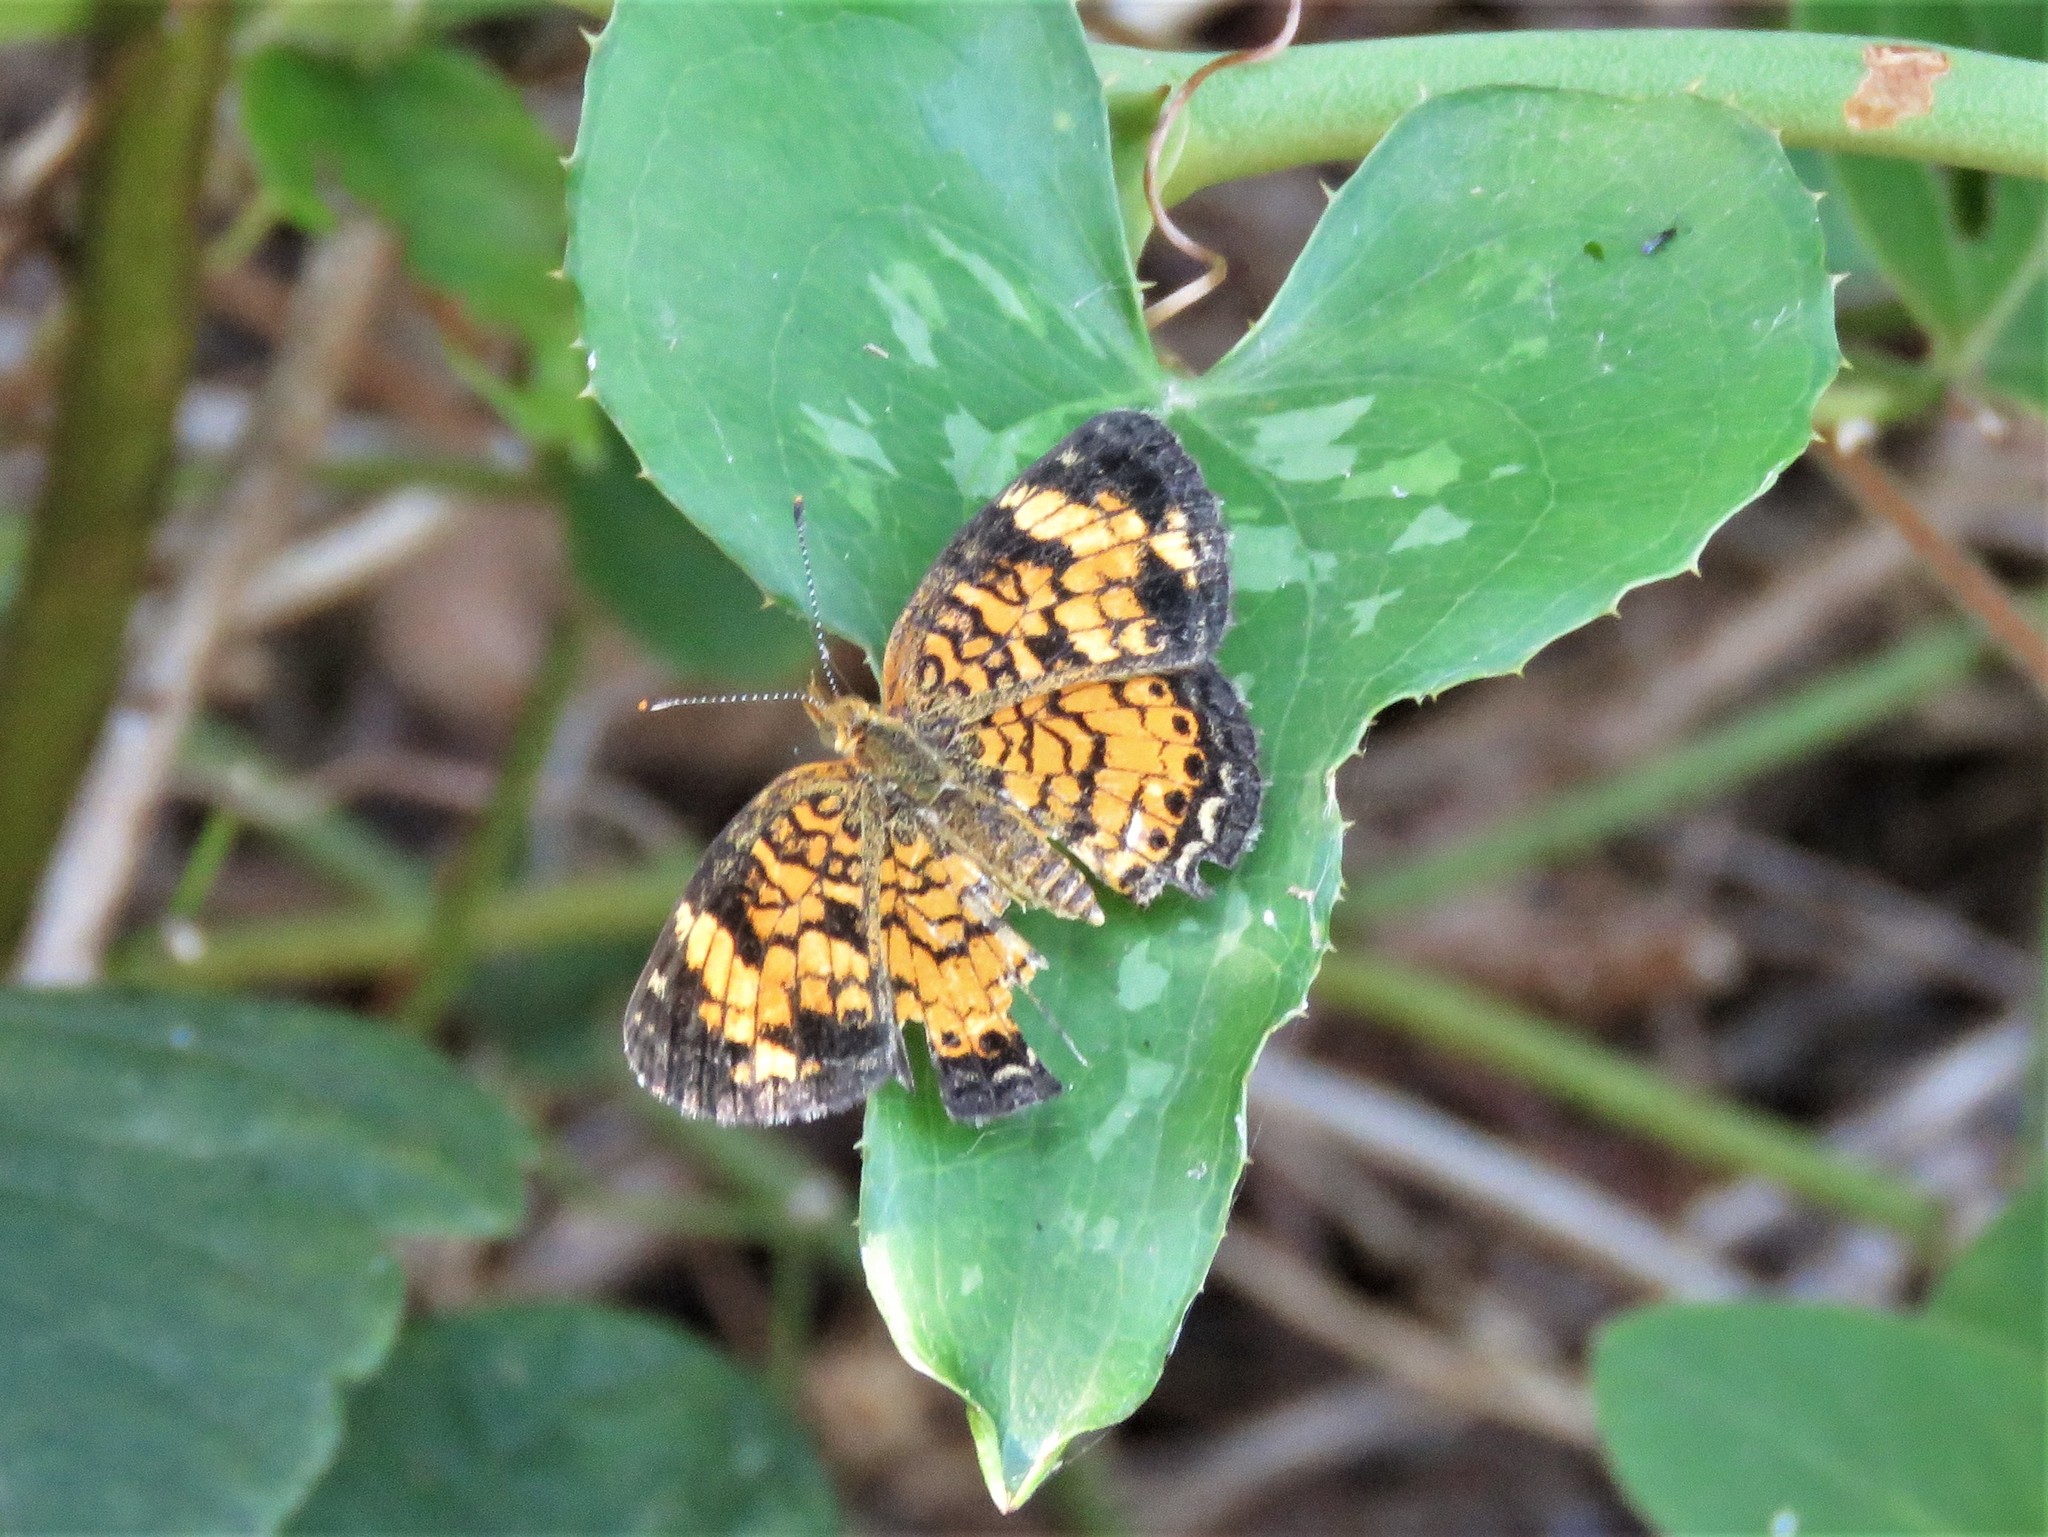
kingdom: Animalia
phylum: Arthropoda
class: Insecta
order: Lepidoptera
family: Nymphalidae
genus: Phyciodes
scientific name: Phyciodes tharos
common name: Pearl crescent
